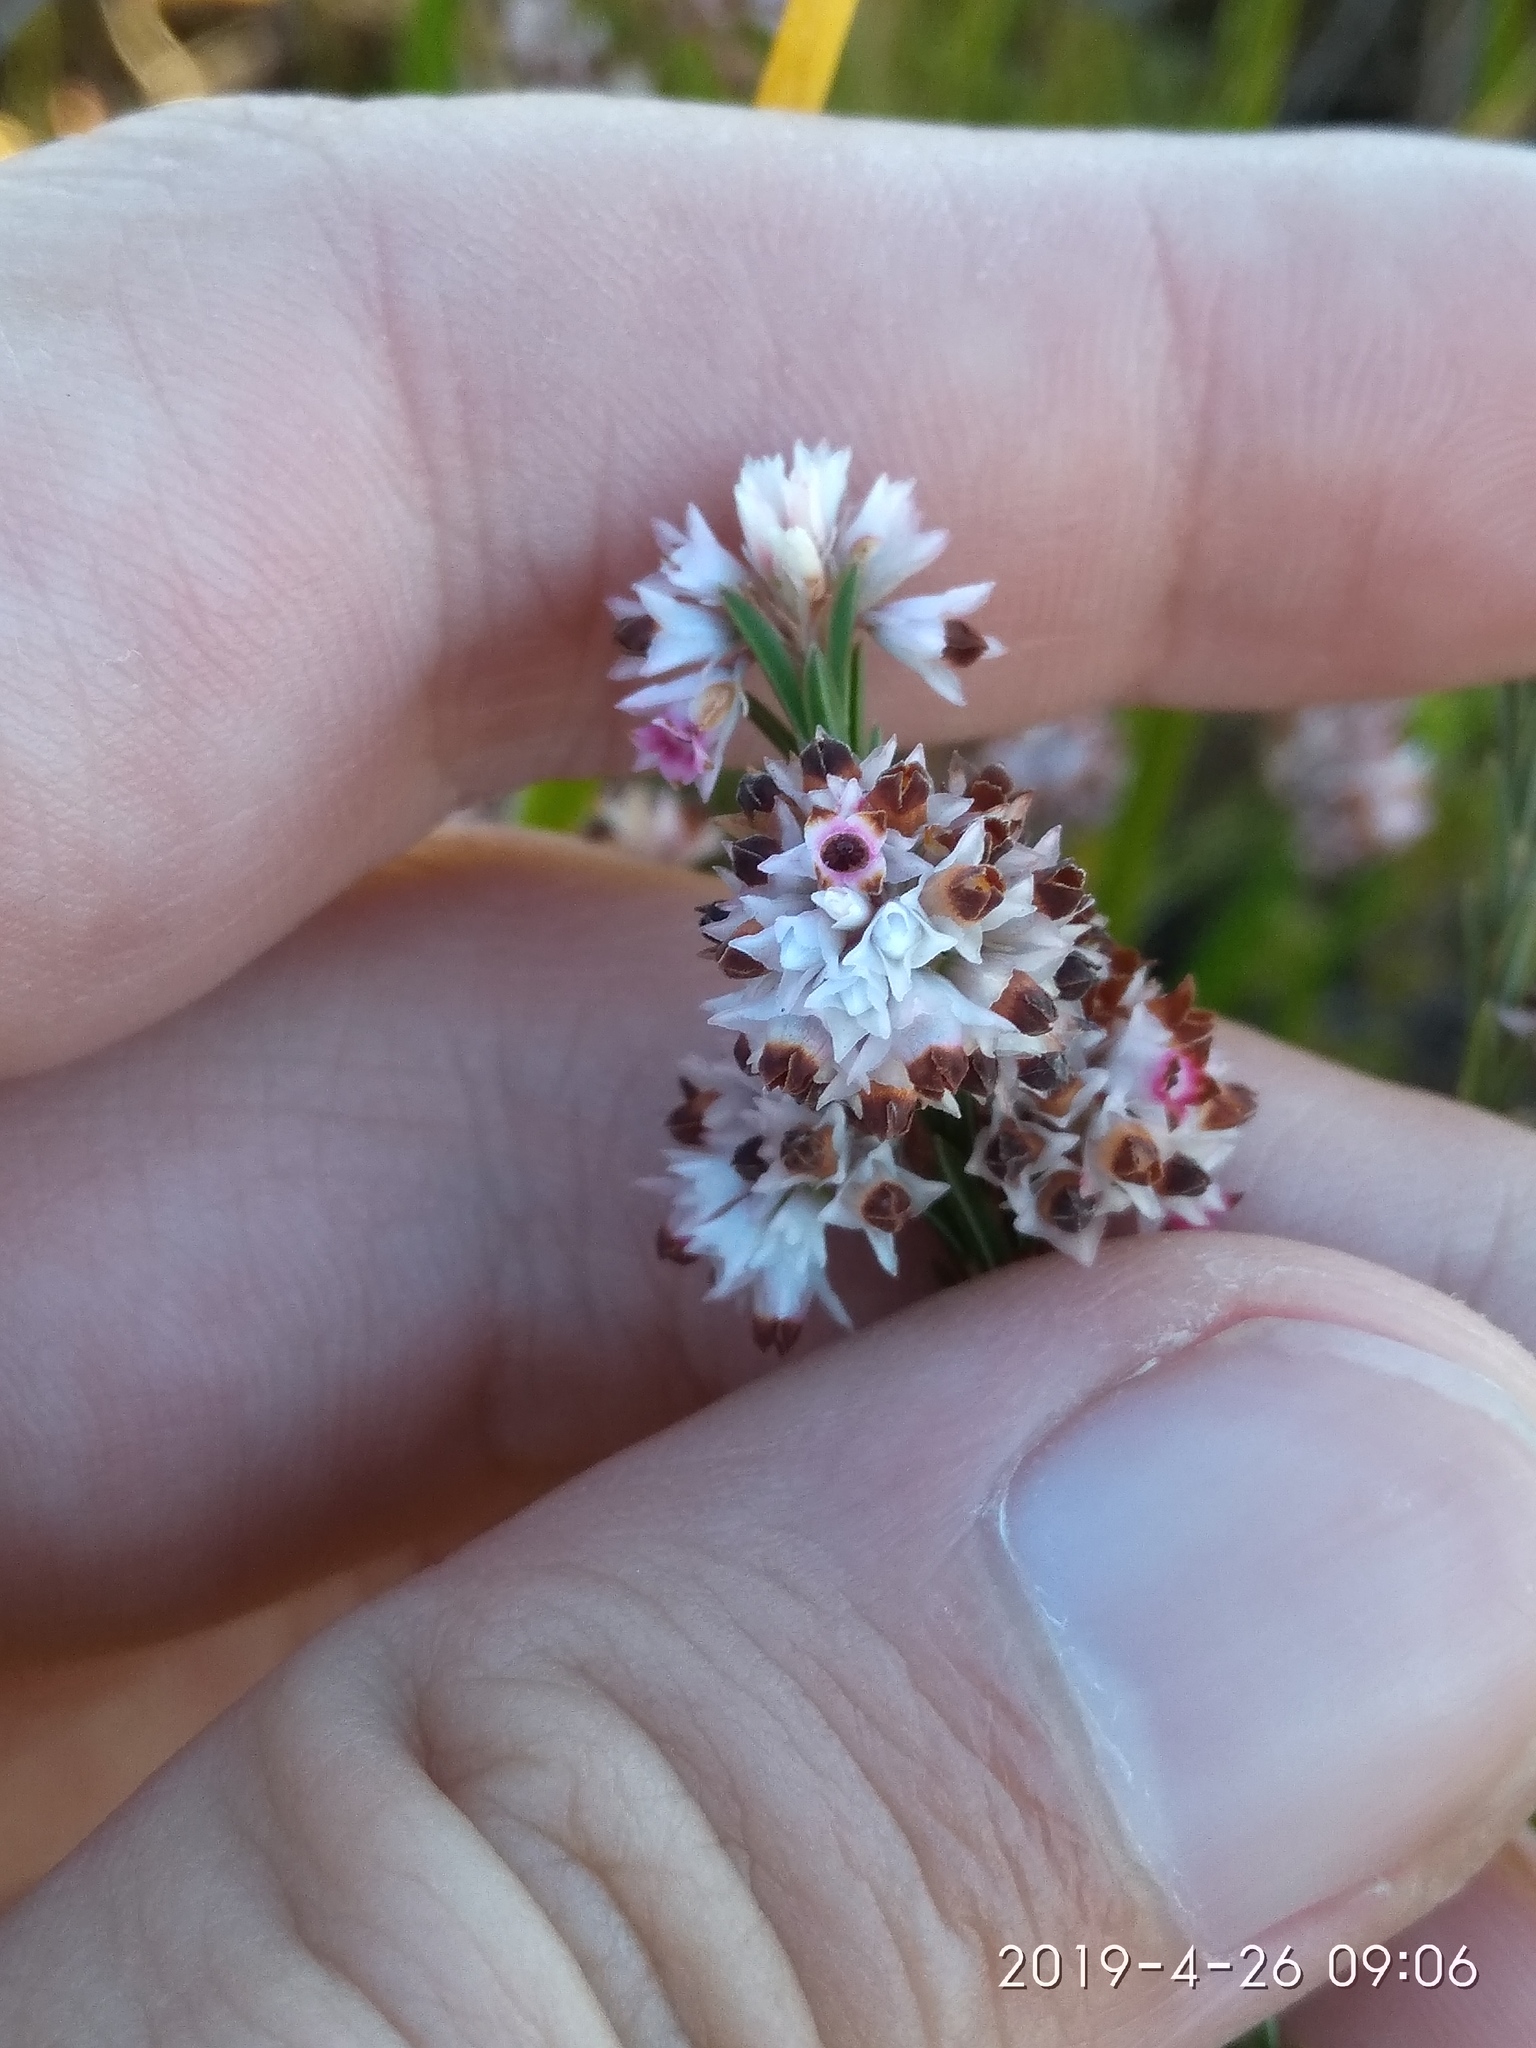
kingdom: Plantae
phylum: Tracheophyta
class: Magnoliopsida
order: Ericales
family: Ericaceae
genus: Erica
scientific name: Erica articularis
